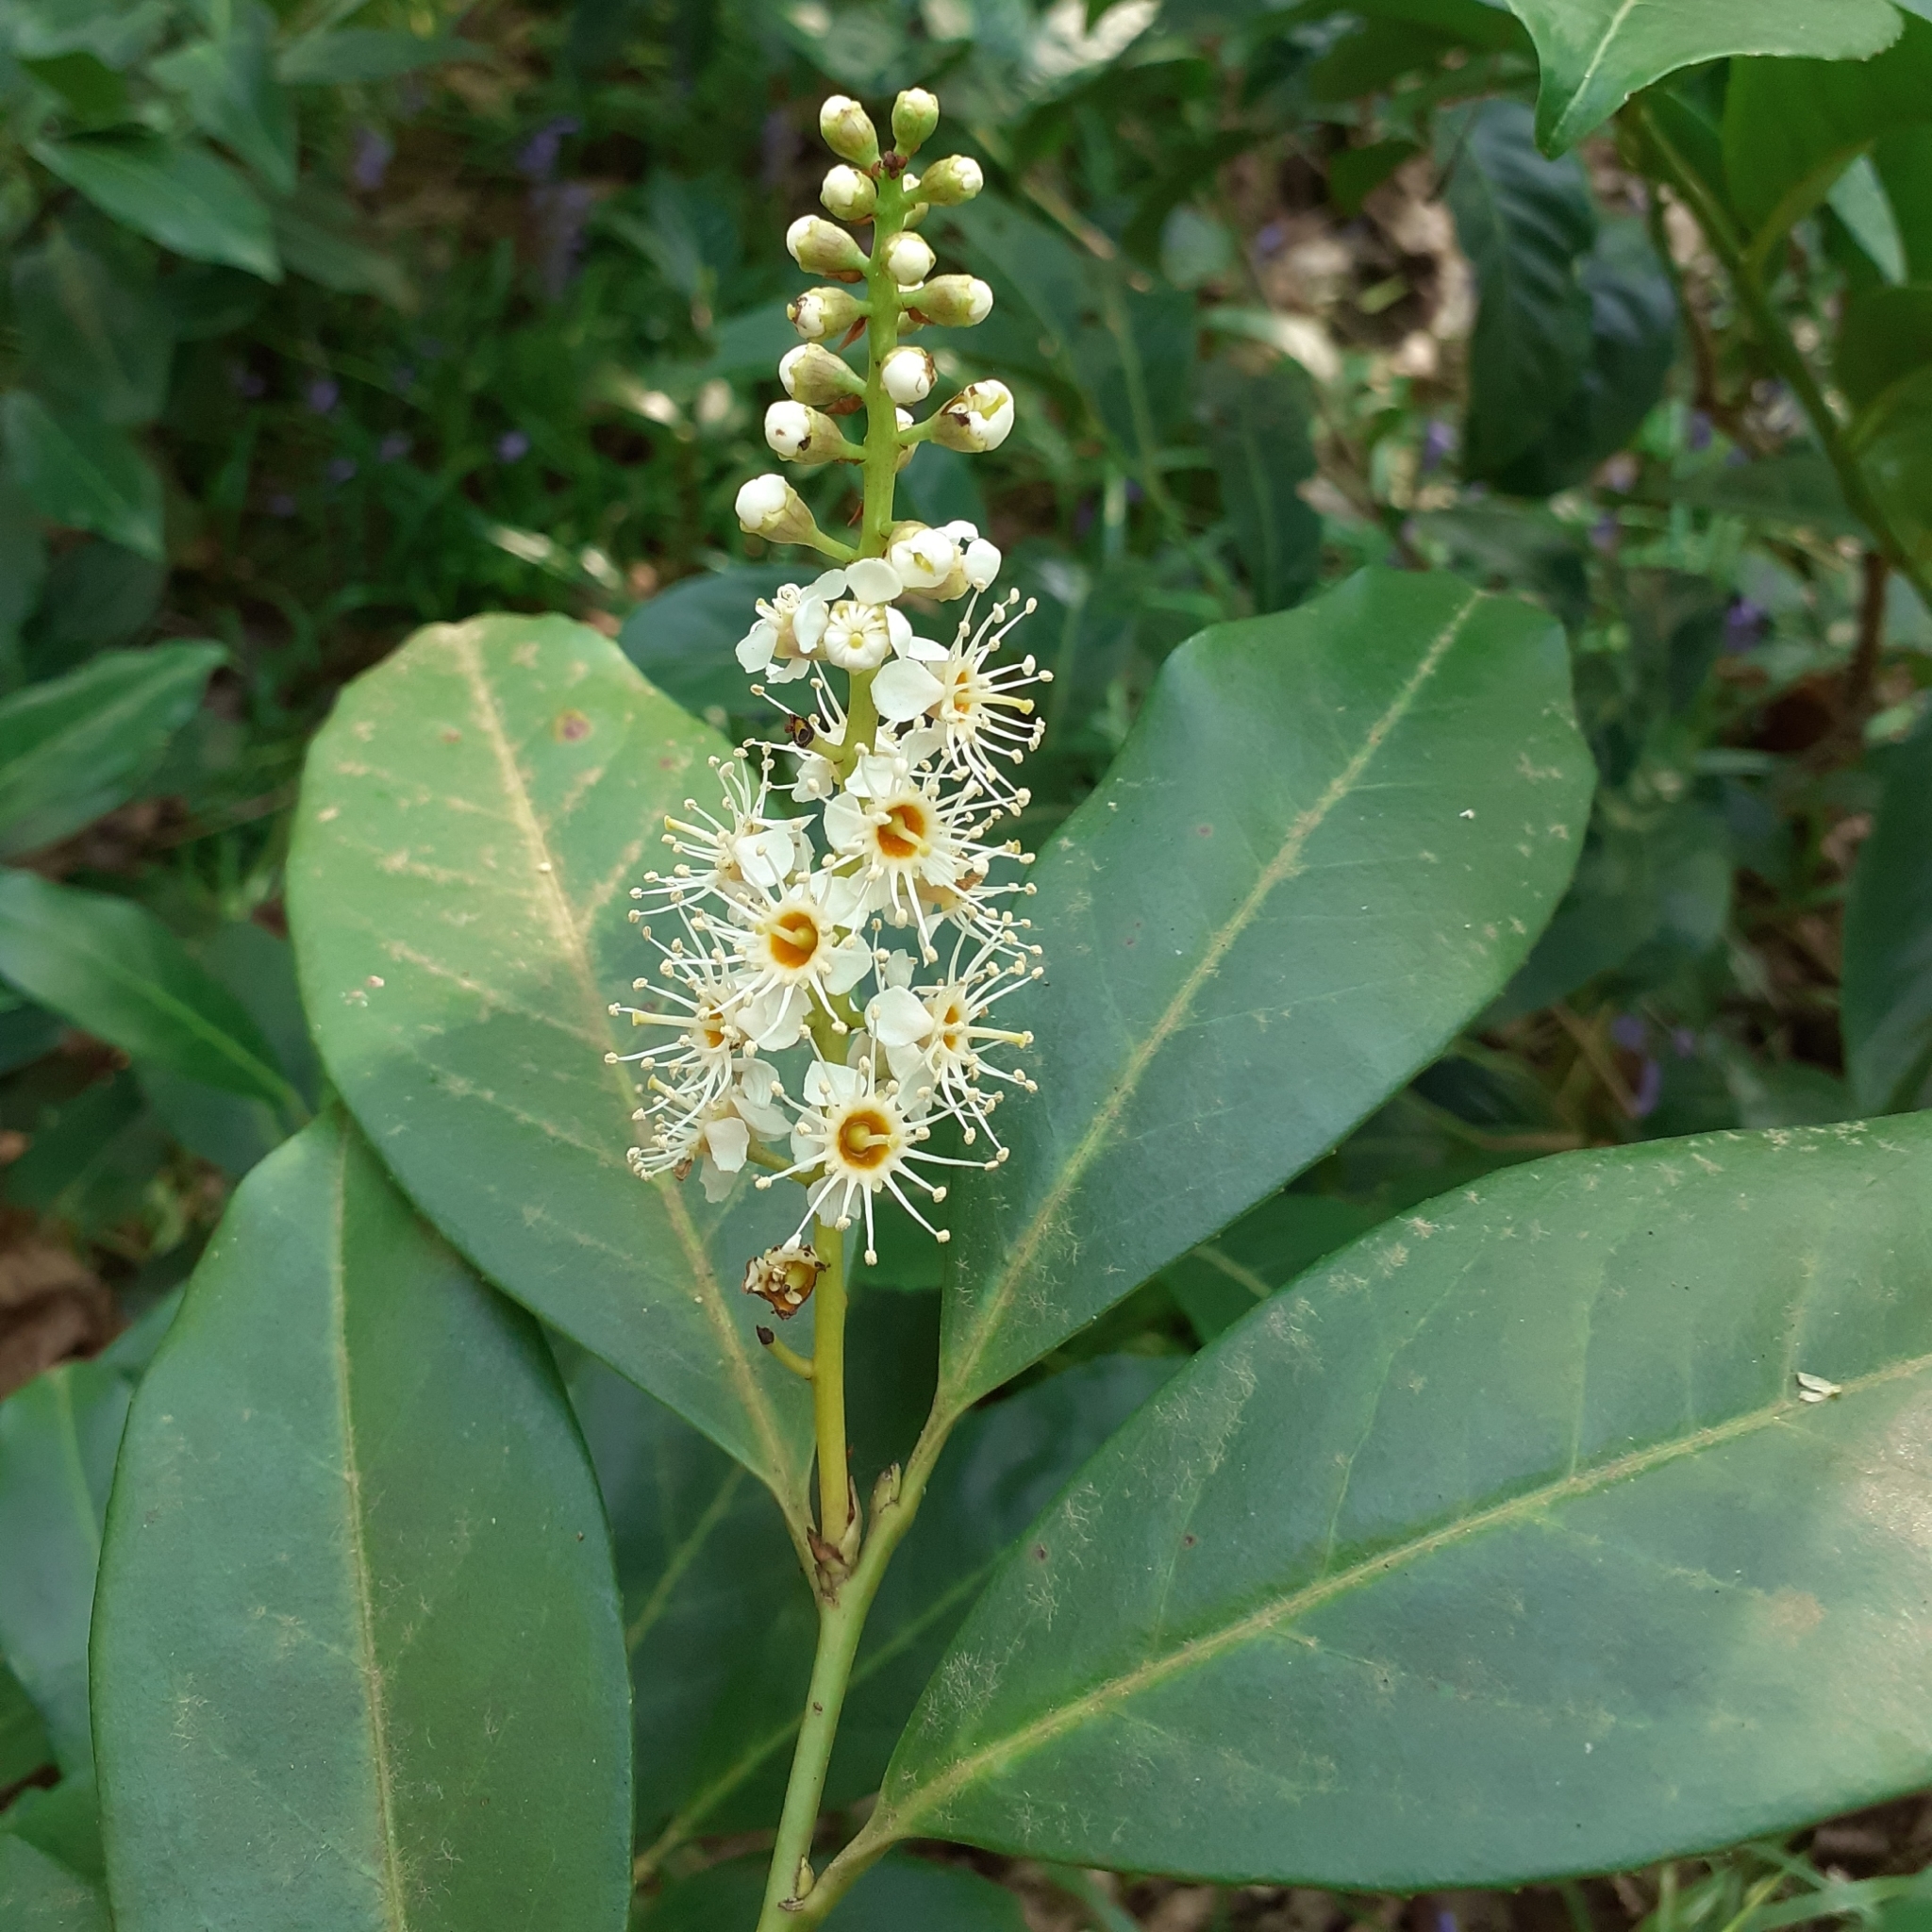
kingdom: Plantae
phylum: Tracheophyta
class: Magnoliopsida
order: Rosales
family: Rosaceae
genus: Prunus
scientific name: Prunus laurocerasus
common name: Cherry laurel
